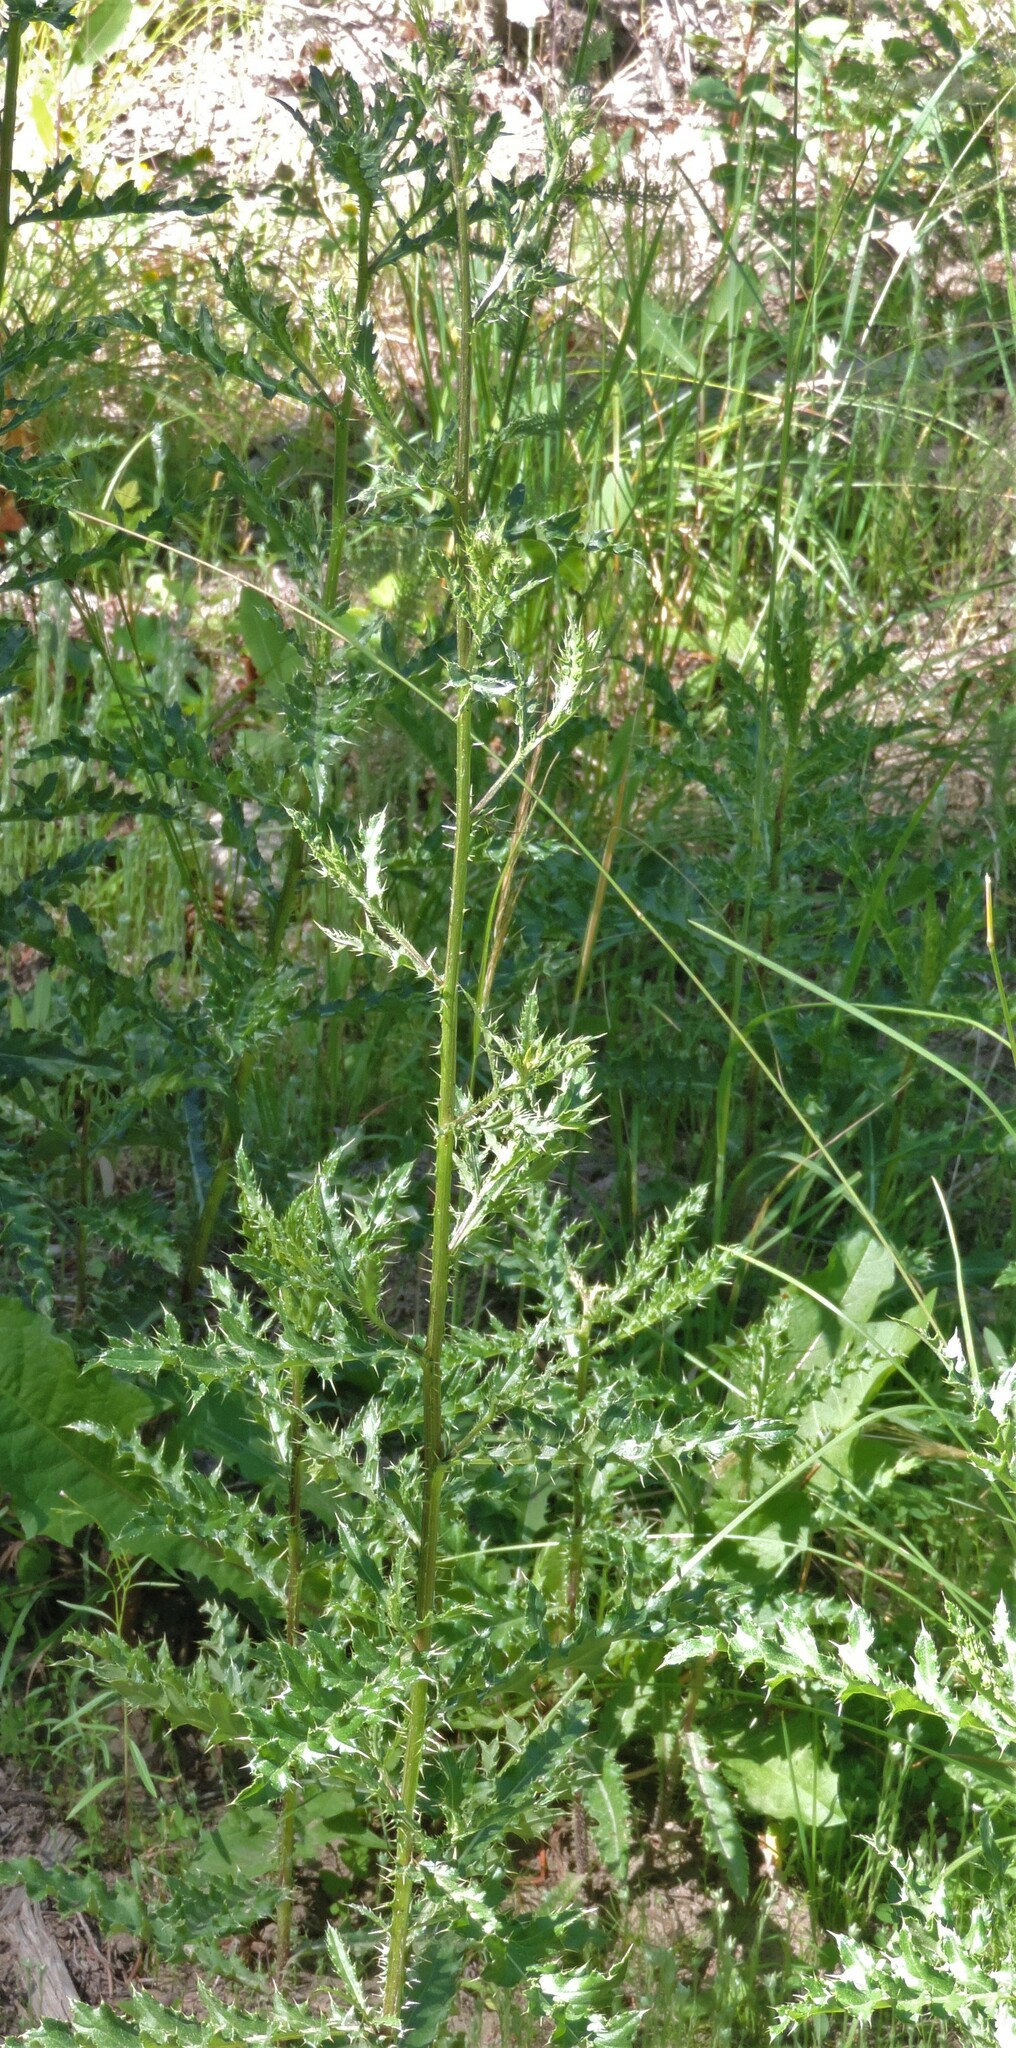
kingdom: Plantae
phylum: Tracheophyta
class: Magnoliopsida
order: Asterales
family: Asteraceae
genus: Cirsium
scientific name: Cirsium arvense
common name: Creeping thistle
